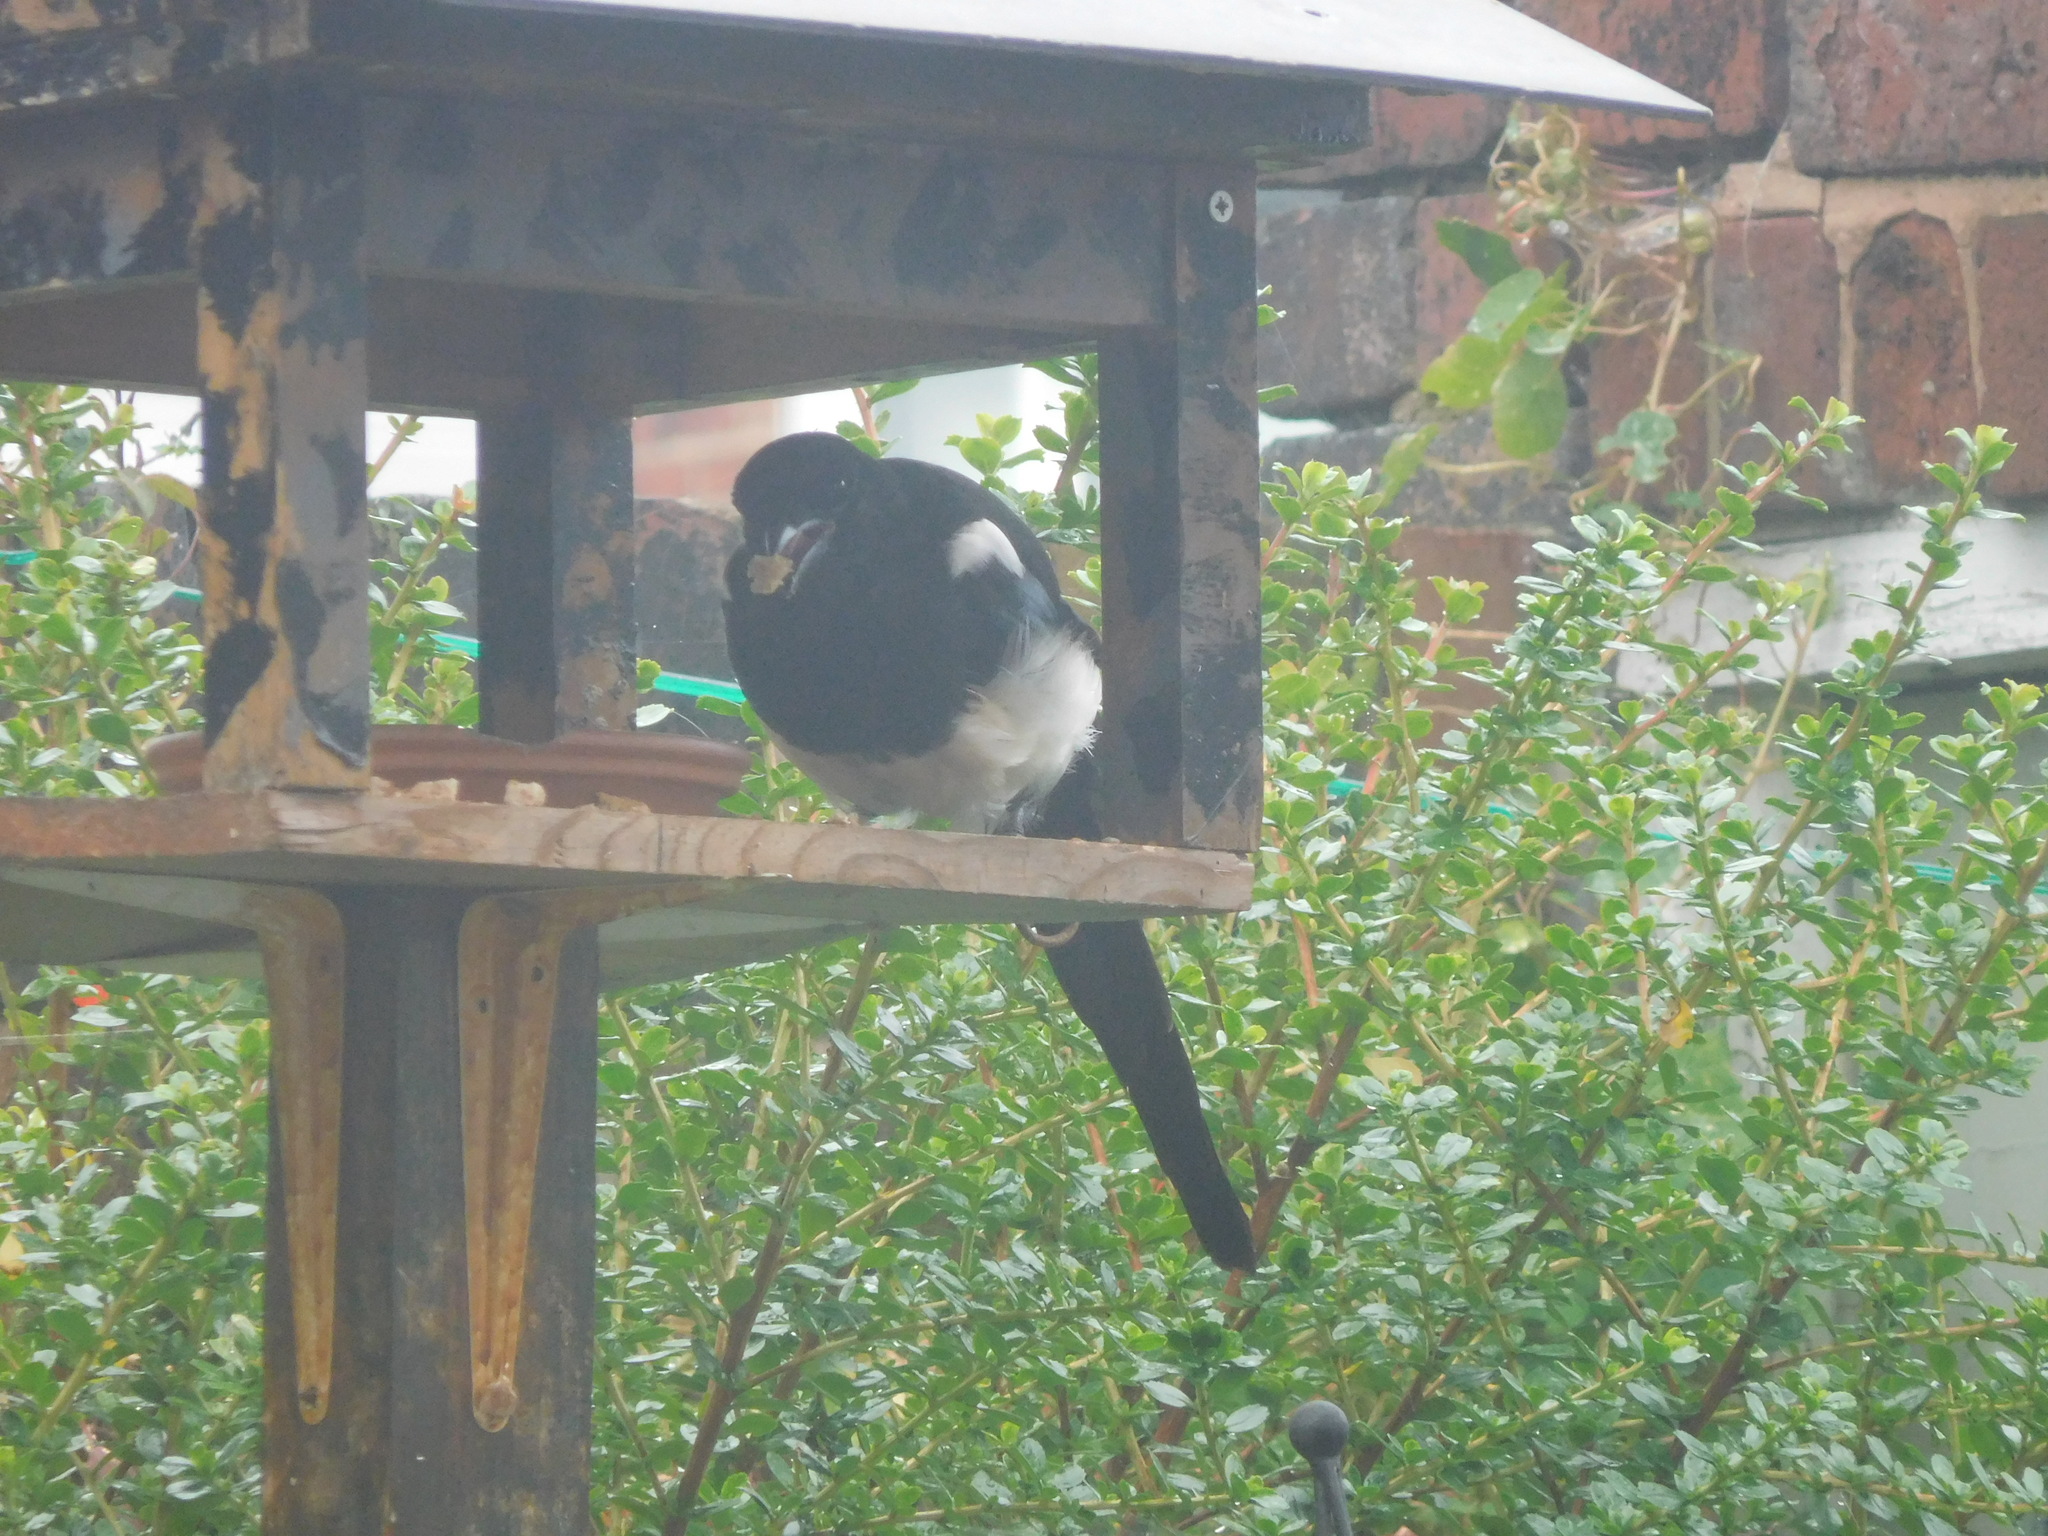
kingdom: Animalia
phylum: Chordata
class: Aves
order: Passeriformes
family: Corvidae
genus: Pica
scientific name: Pica pica
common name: Eurasian magpie
